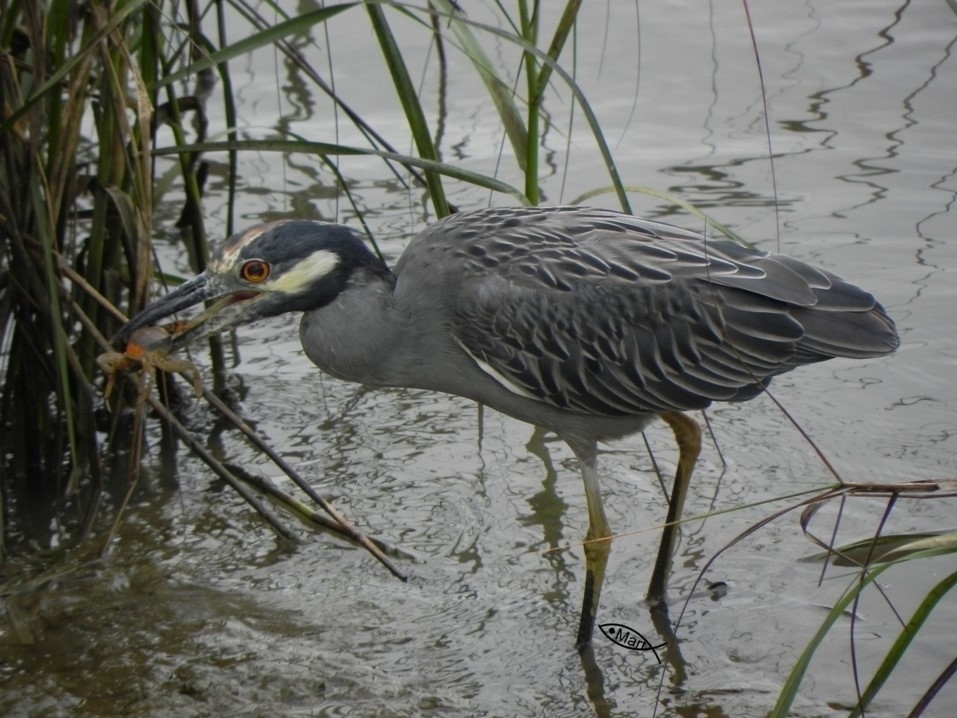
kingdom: Animalia
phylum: Chordata
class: Aves
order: Pelecaniformes
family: Ardeidae
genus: Nyctanassa
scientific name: Nyctanassa violacea
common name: Yellow-crowned night heron
